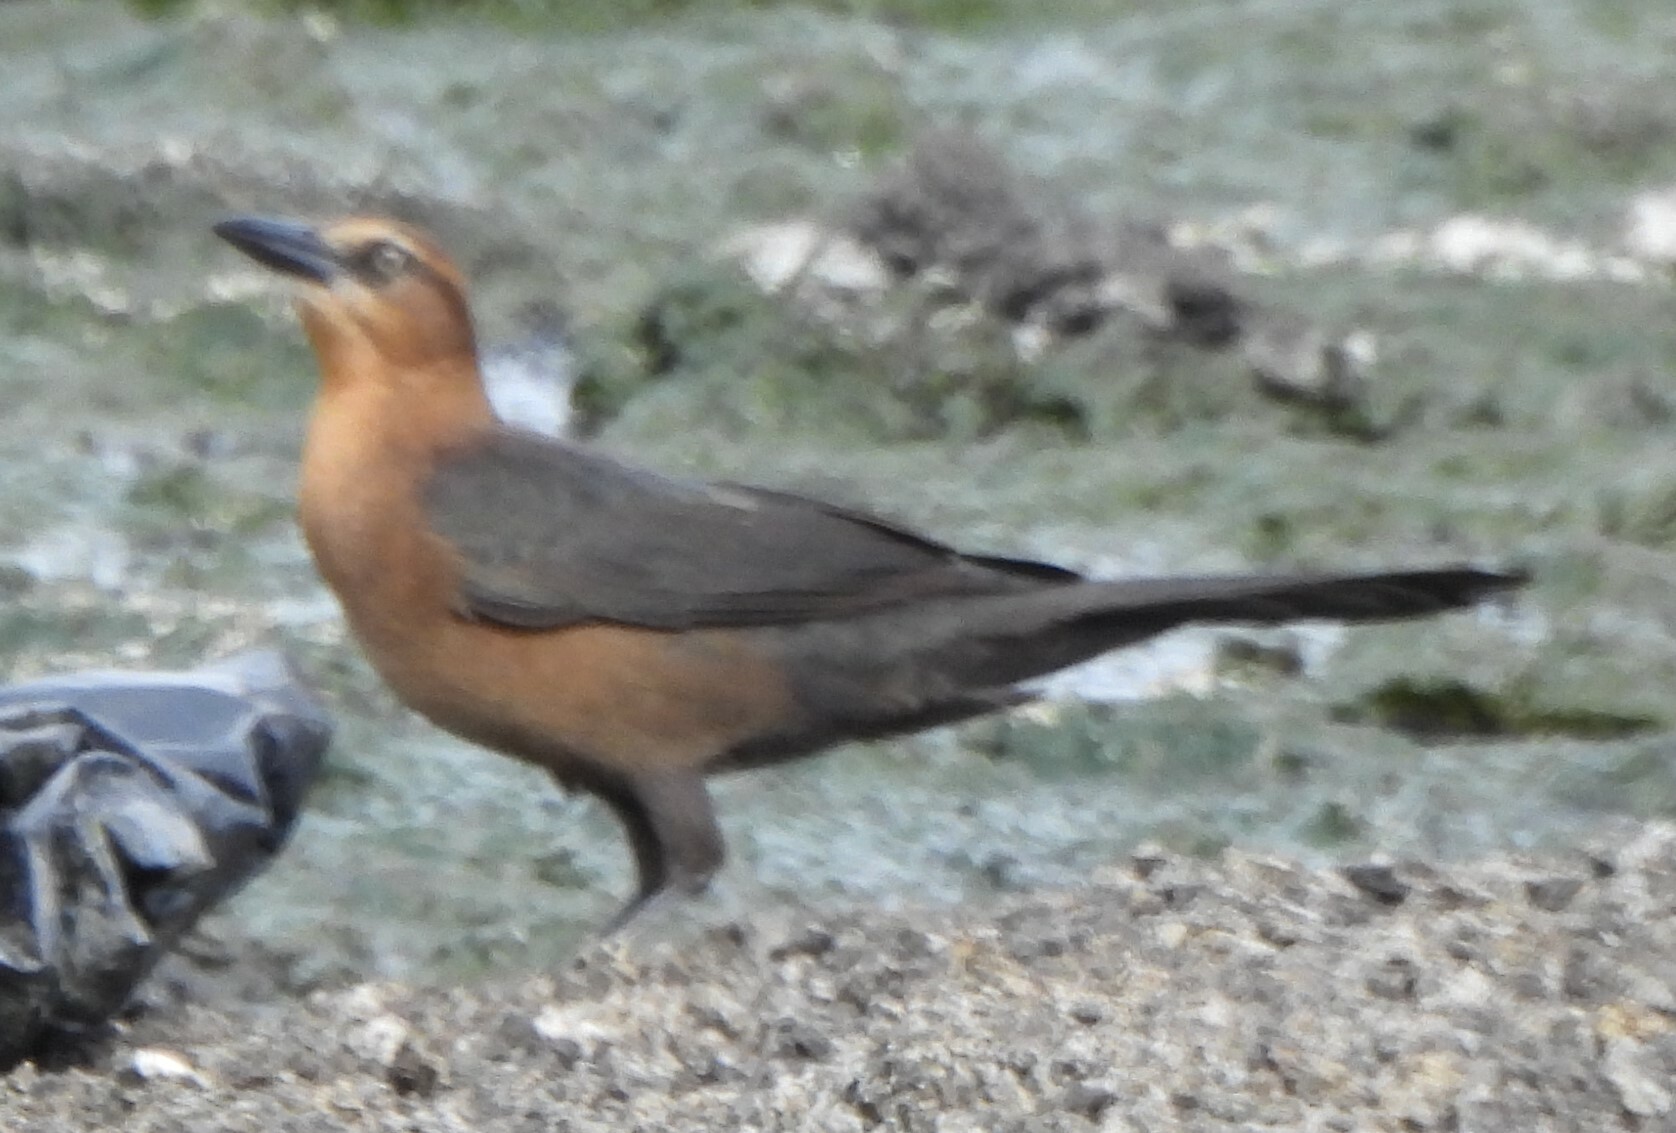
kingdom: Animalia
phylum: Chordata
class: Aves
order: Passeriformes
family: Icteridae
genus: Quiscalus
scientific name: Quiscalus mexicanus
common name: Great-tailed grackle
